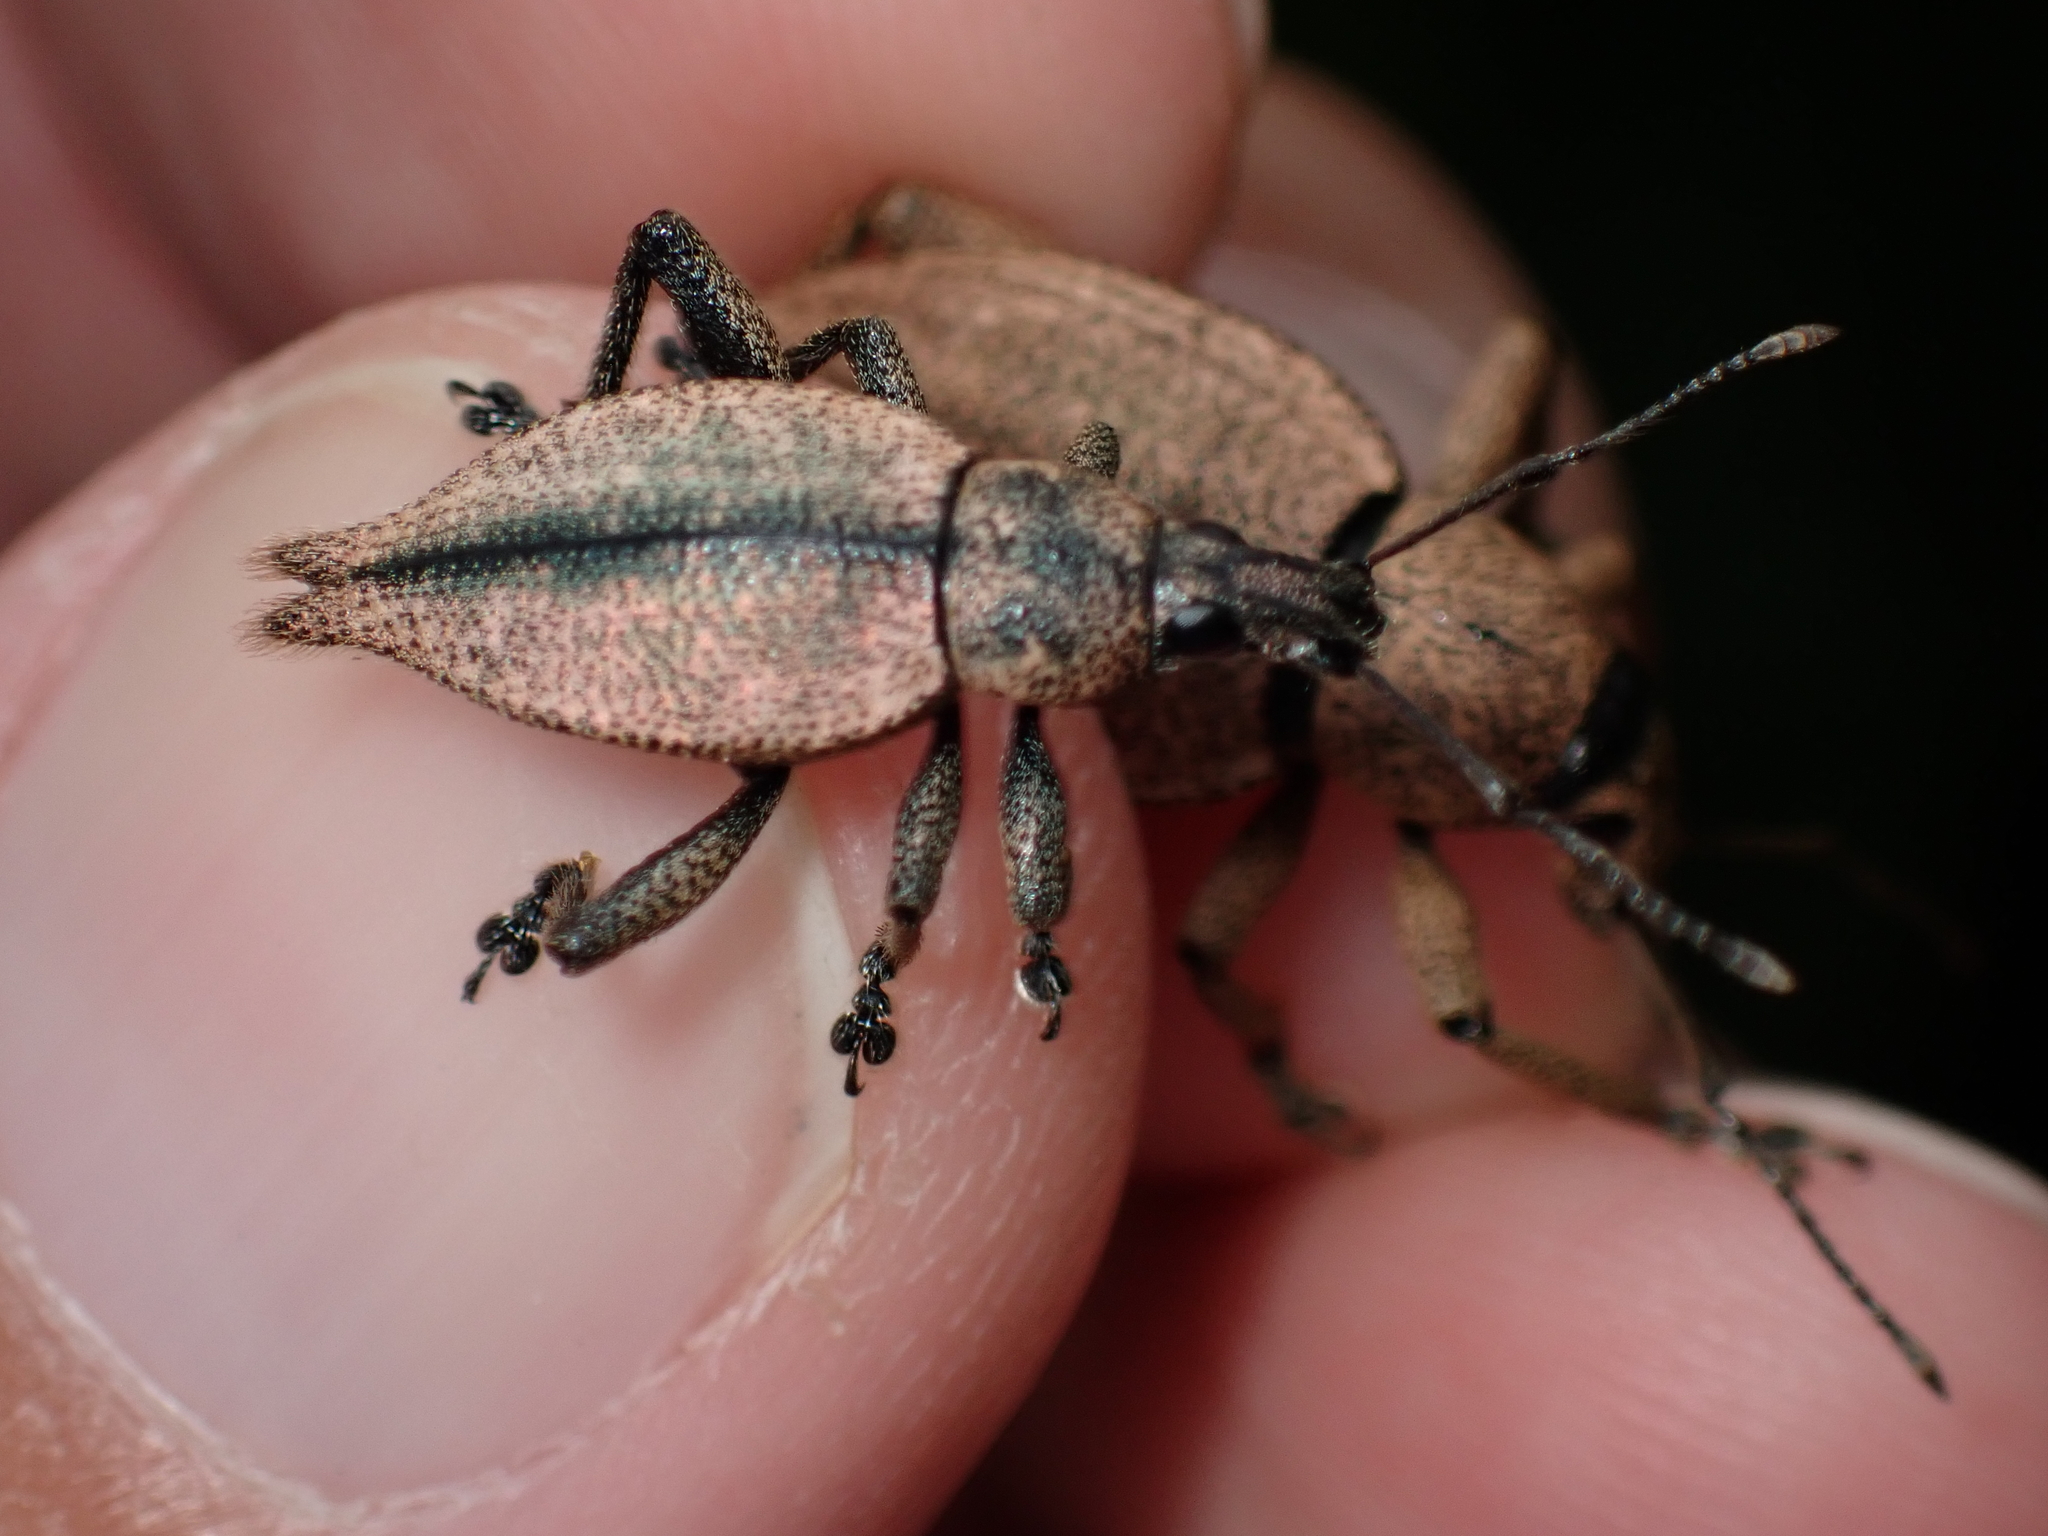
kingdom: Animalia
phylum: Arthropoda
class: Insecta
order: Coleoptera
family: Curculionidae
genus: Elytrurus
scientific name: Elytrurus serrulatus
